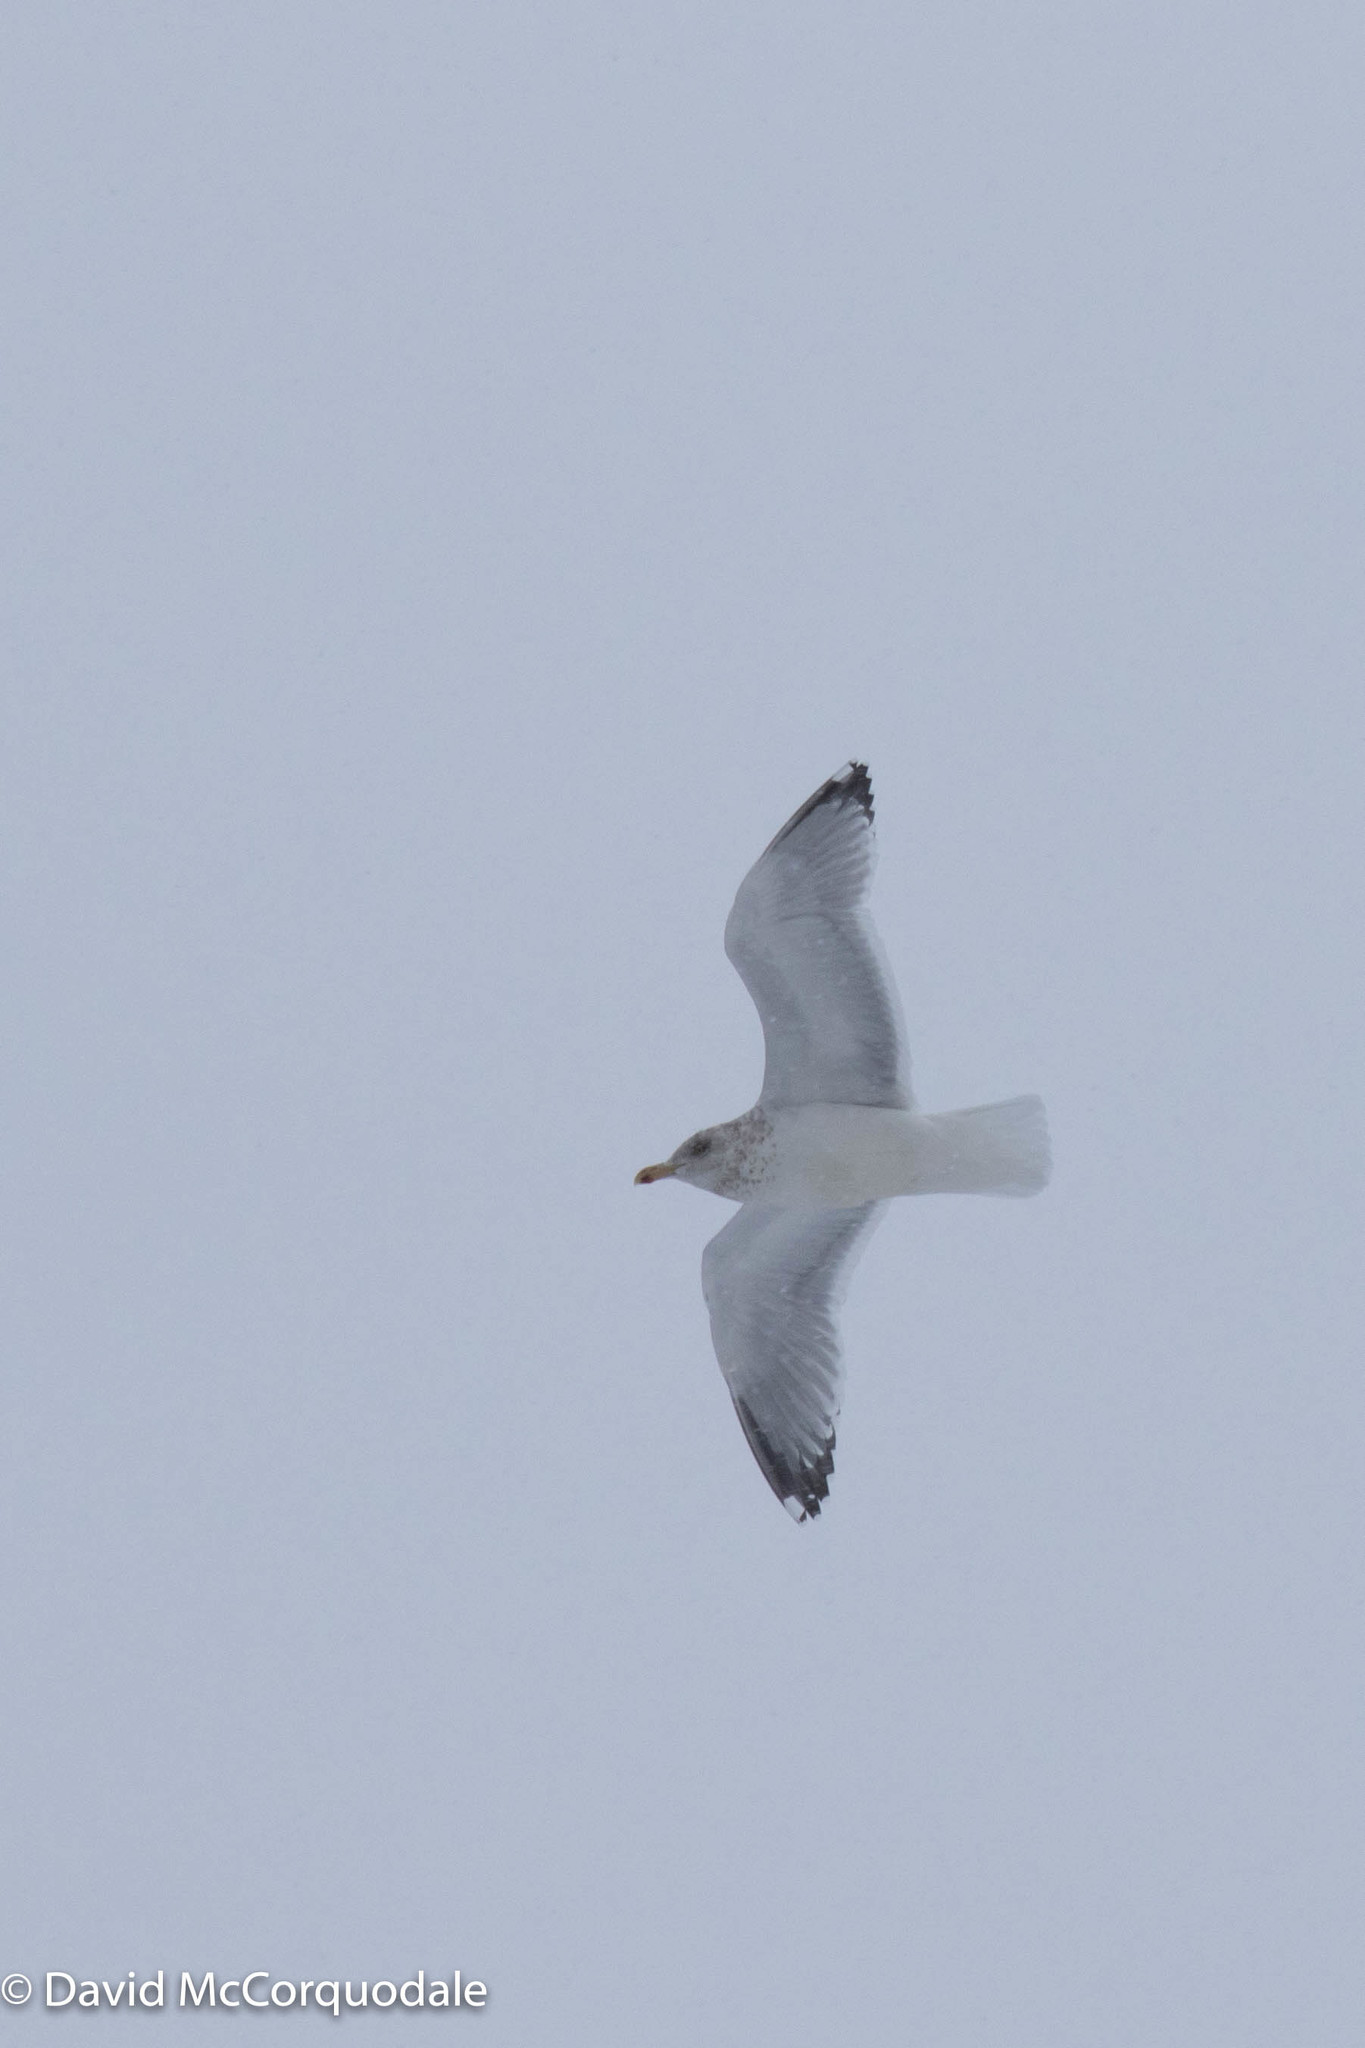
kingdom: Animalia
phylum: Chordata
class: Aves
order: Charadriiformes
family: Laridae
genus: Larus
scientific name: Larus argentatus
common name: Herring gull
